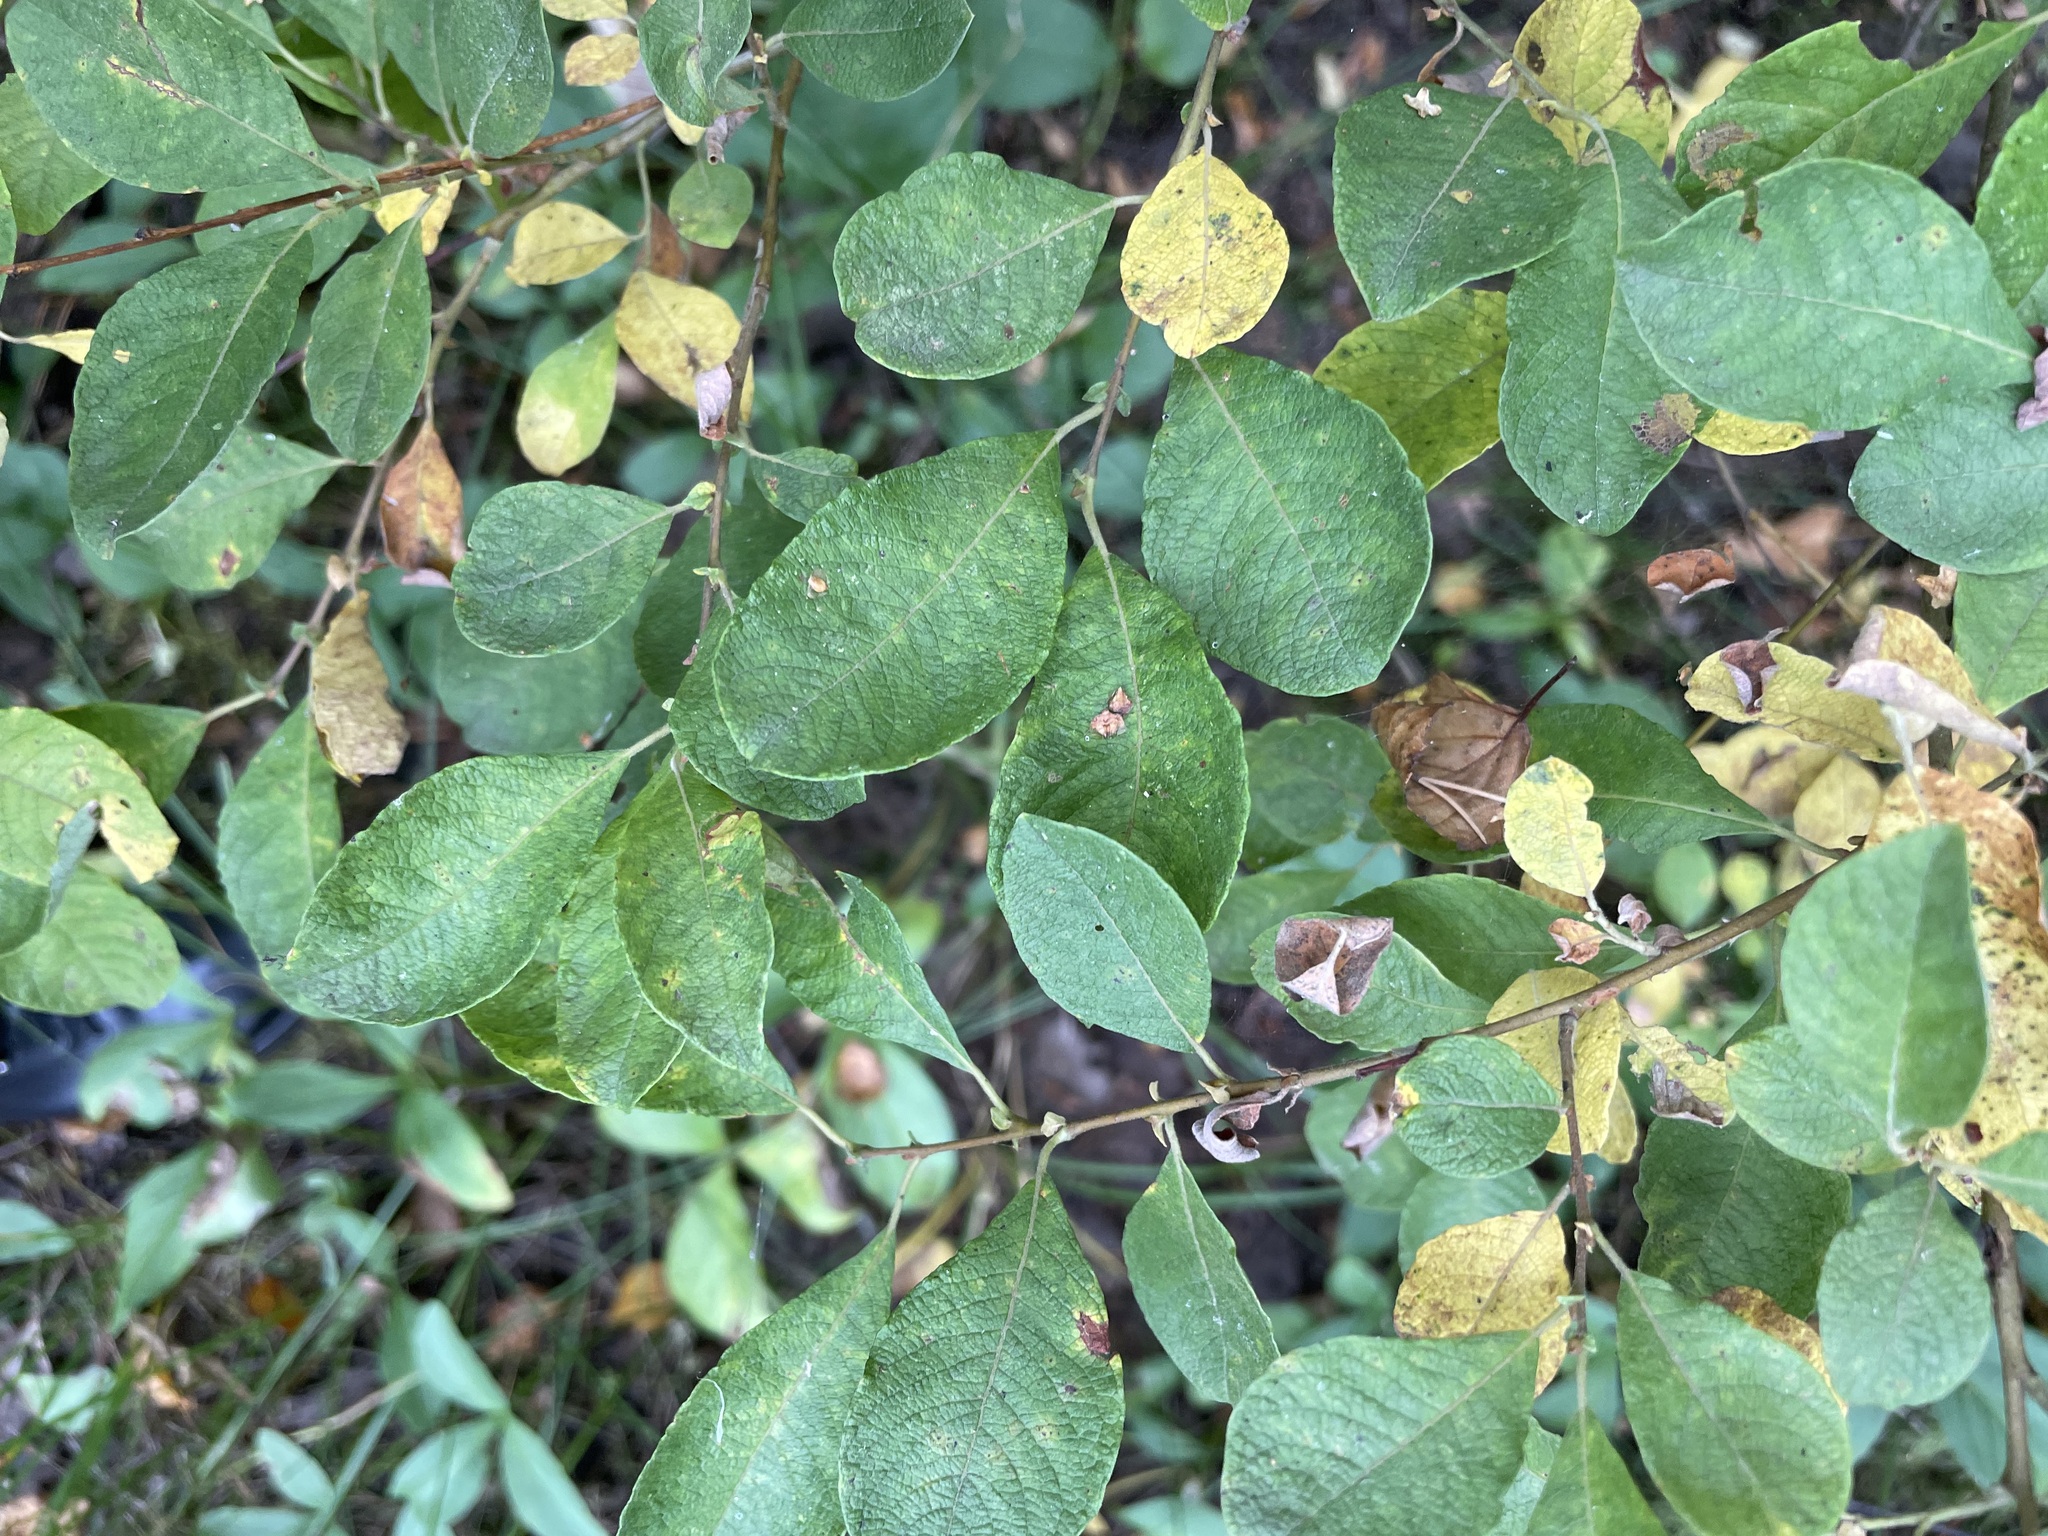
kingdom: Plantae
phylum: Tracheophyta
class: Magnoliopsida
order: Malpighiales
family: Salicaceae
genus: Salix
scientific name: Salix aurita
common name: Eared willow
